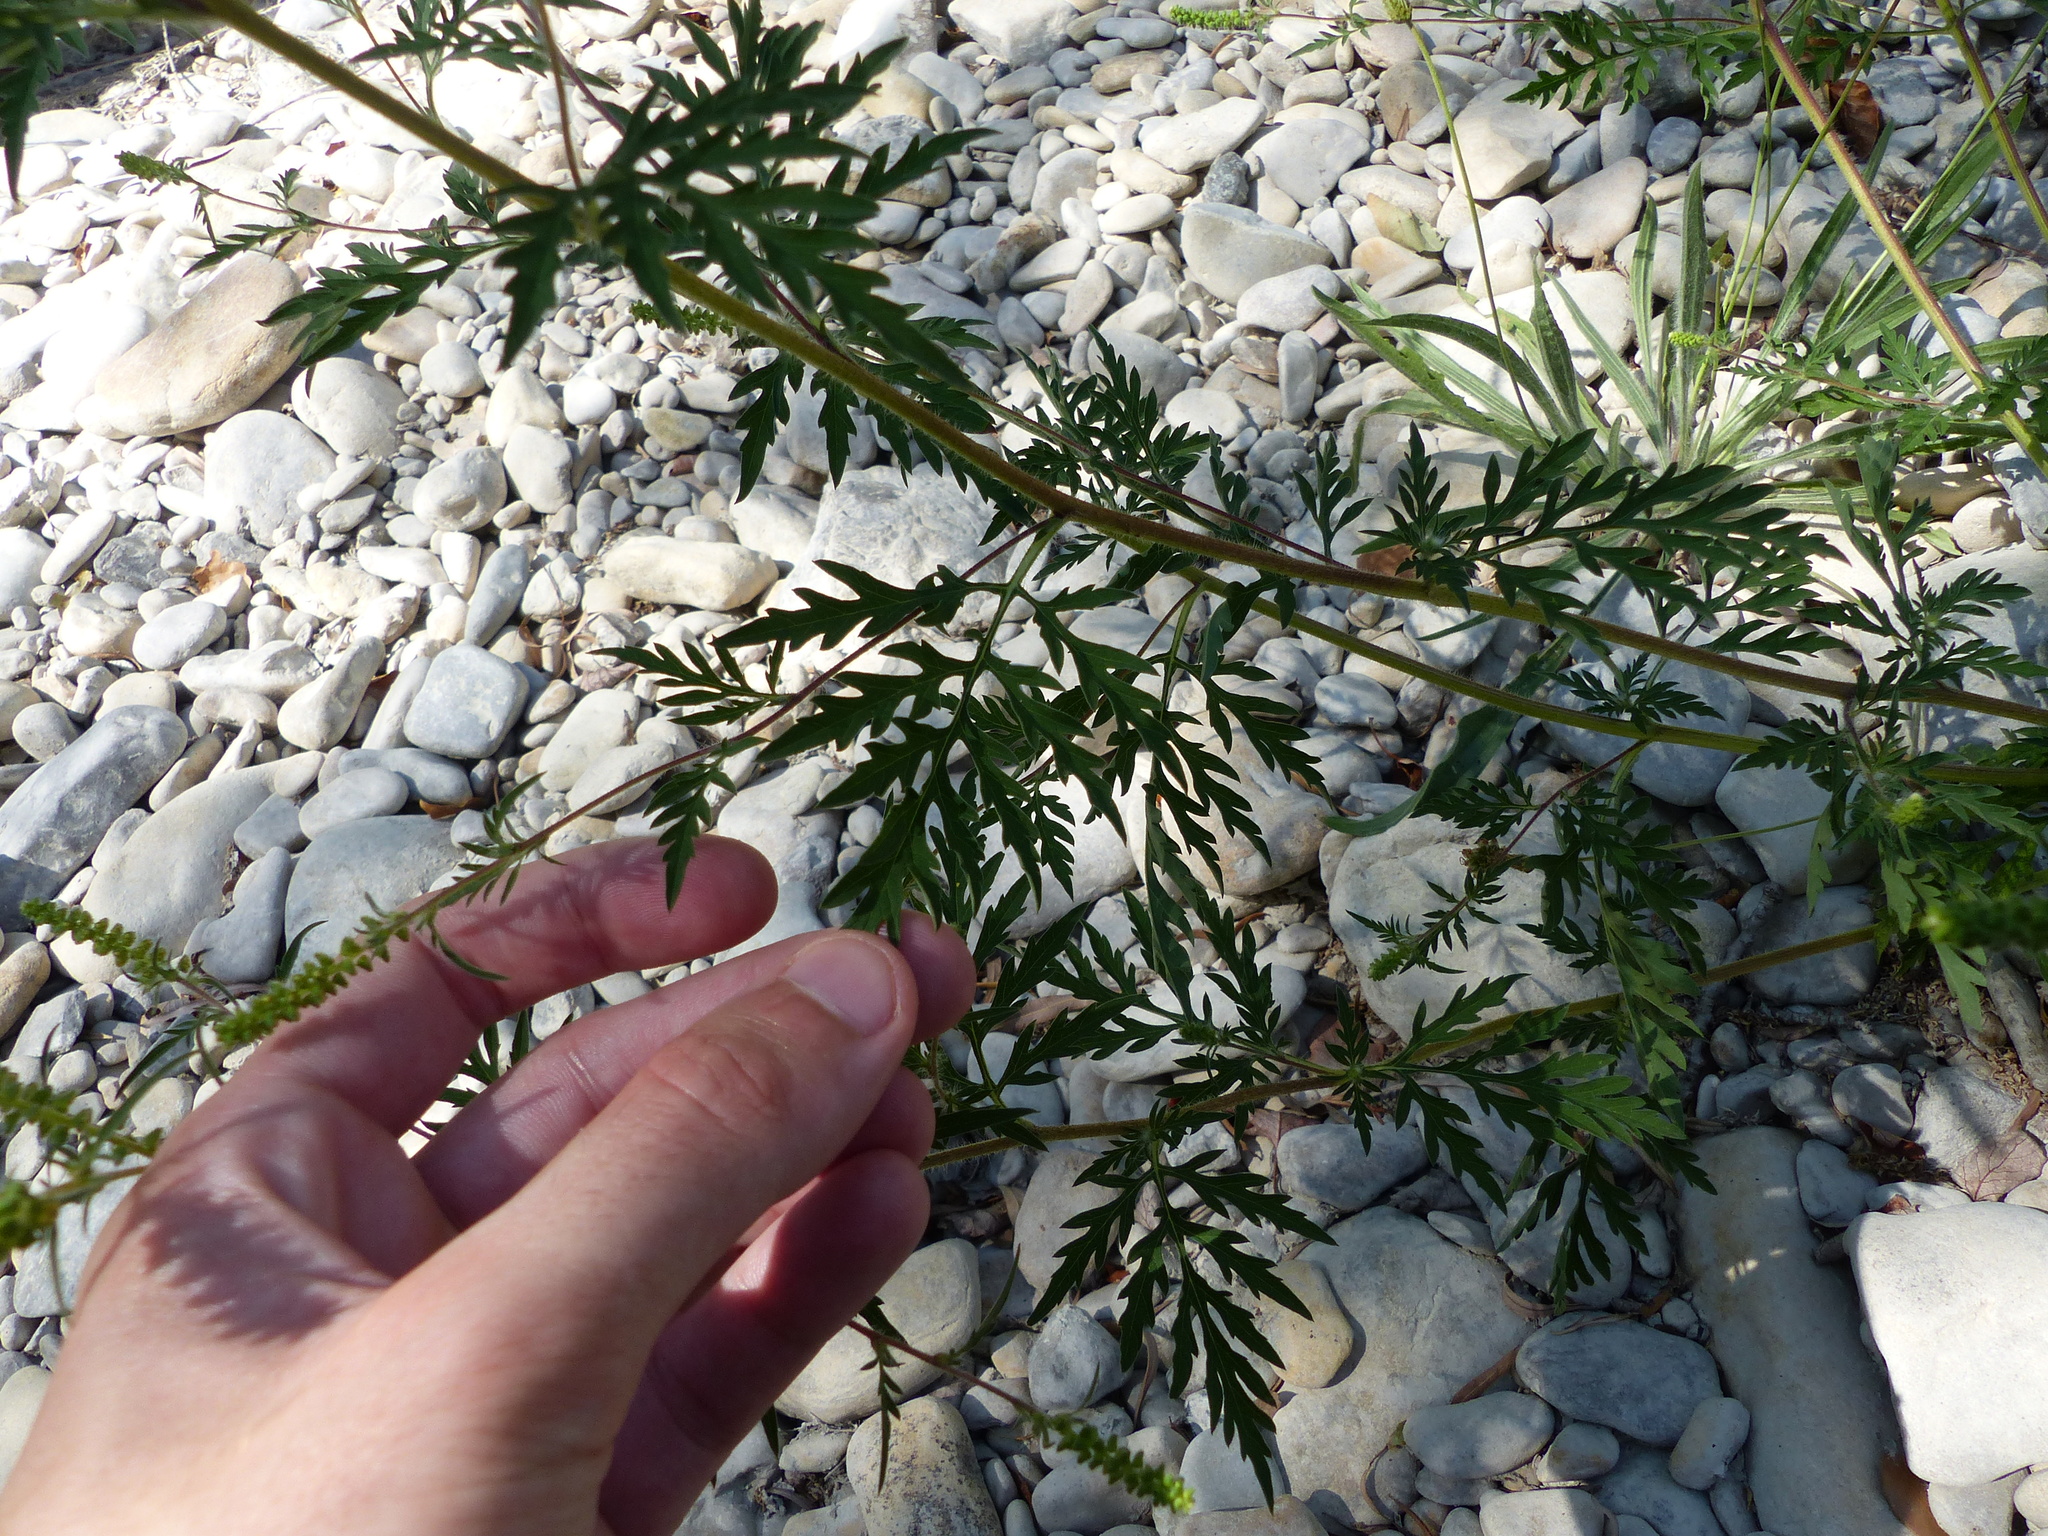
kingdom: Plantae
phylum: Tracheophyta
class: Magnoliopsida
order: Asterales
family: Asteraceae
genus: Ambrosia
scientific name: Ambrosia artemisiifolia
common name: Annual ragweed
